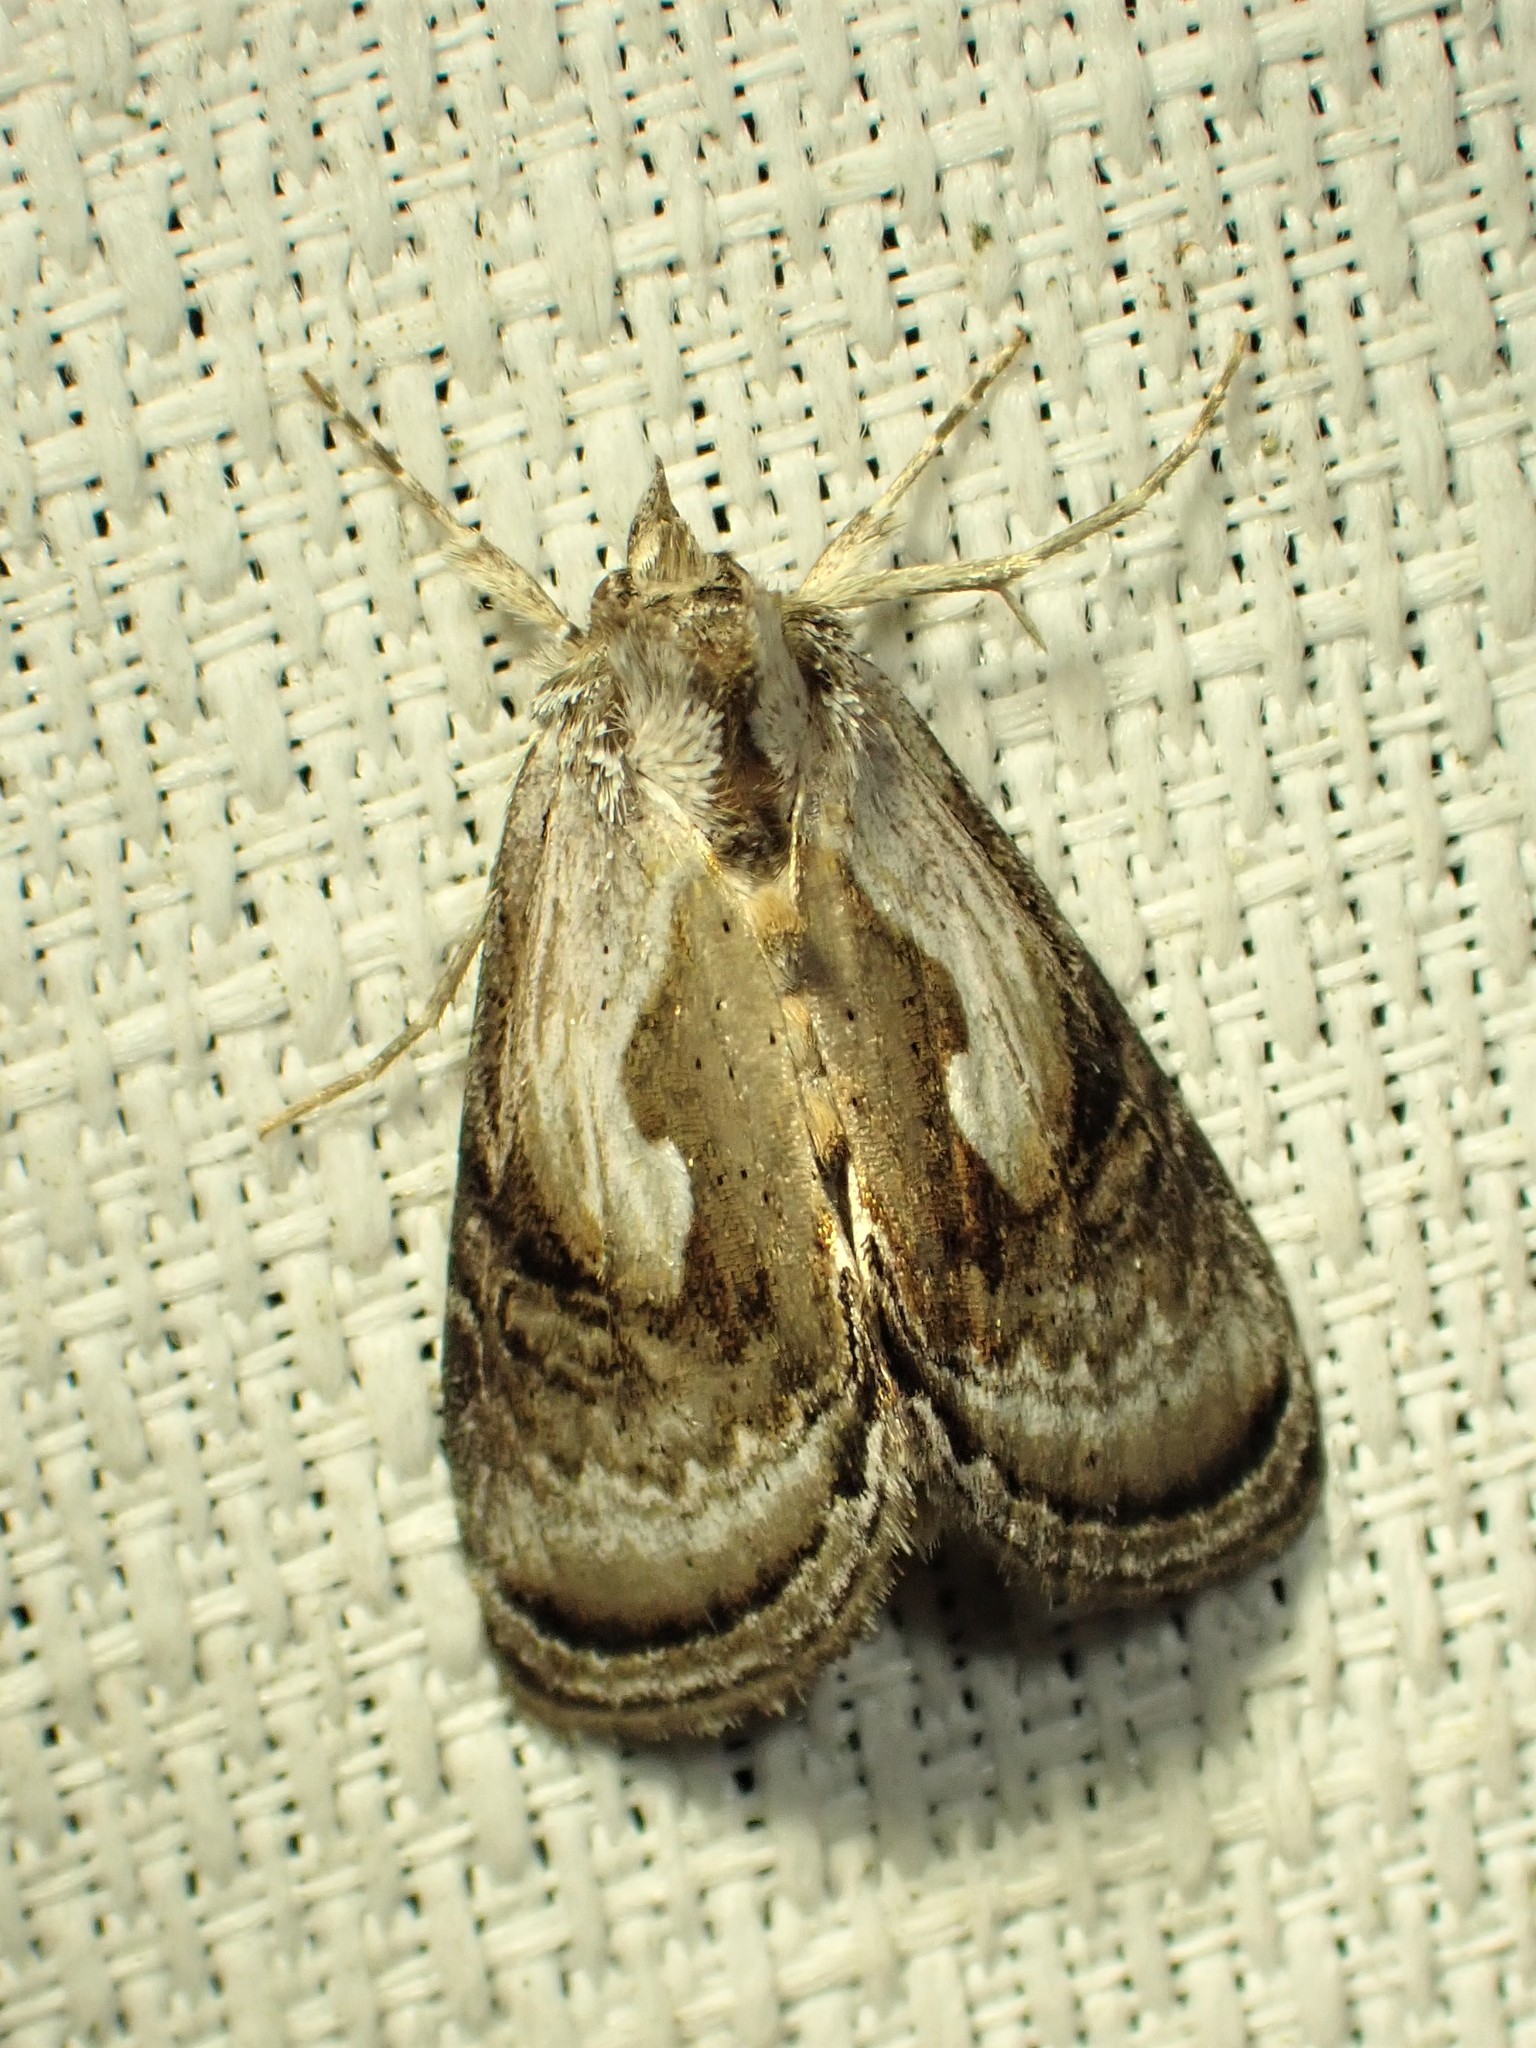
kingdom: Animalia
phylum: Arthropoda
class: Insecta
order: Lepidoptera
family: Noctuidae
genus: Chrysanympha
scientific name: Chrysanympha formosa
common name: Formosa looper moth
